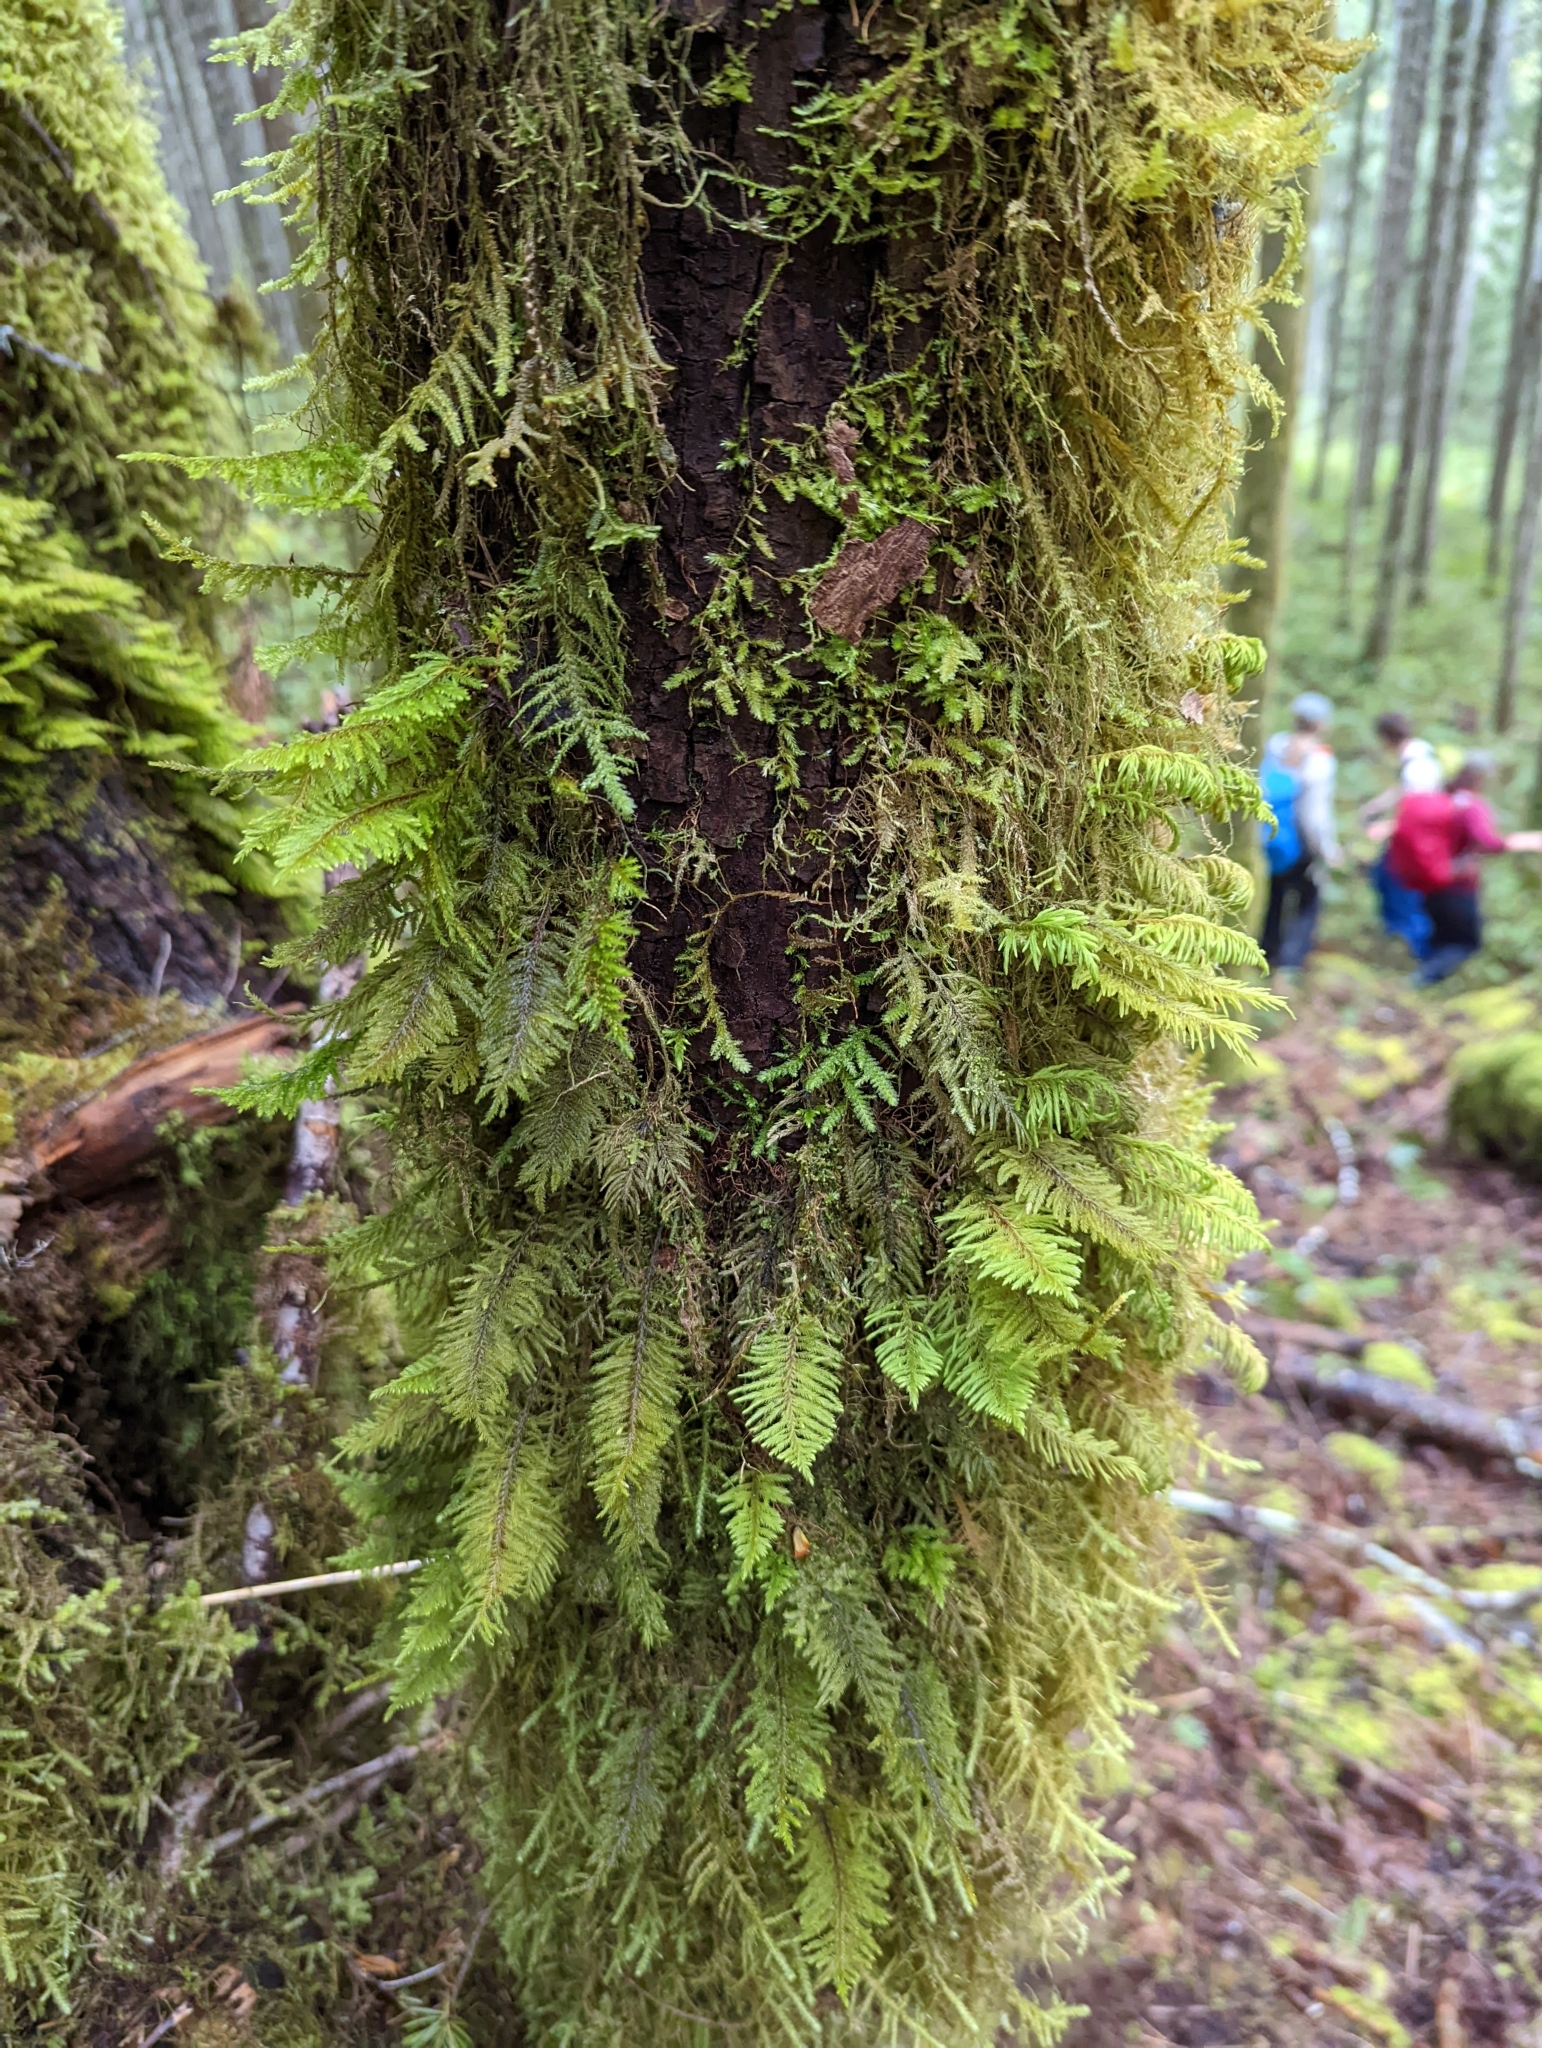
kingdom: Plantae
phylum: Bryophyta
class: Bryopsida
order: Hypnales
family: Cryphaeaceae
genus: Dendroalsia
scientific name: Dendroalsia abietina
